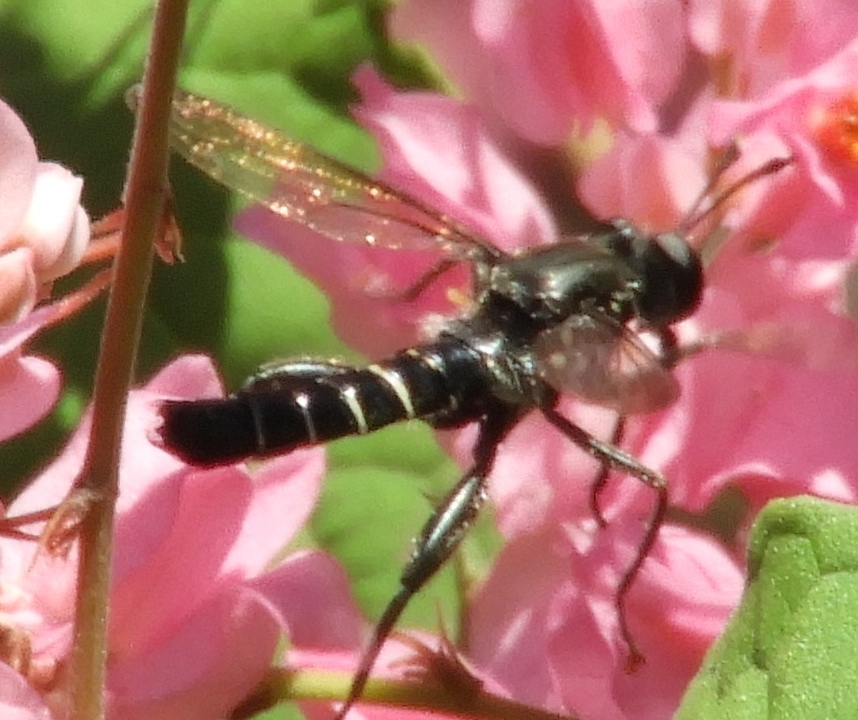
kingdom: Animalia
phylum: Arthropoda
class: Insecta
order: Diptera
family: Mydidae
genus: Mydas
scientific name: Mydas
